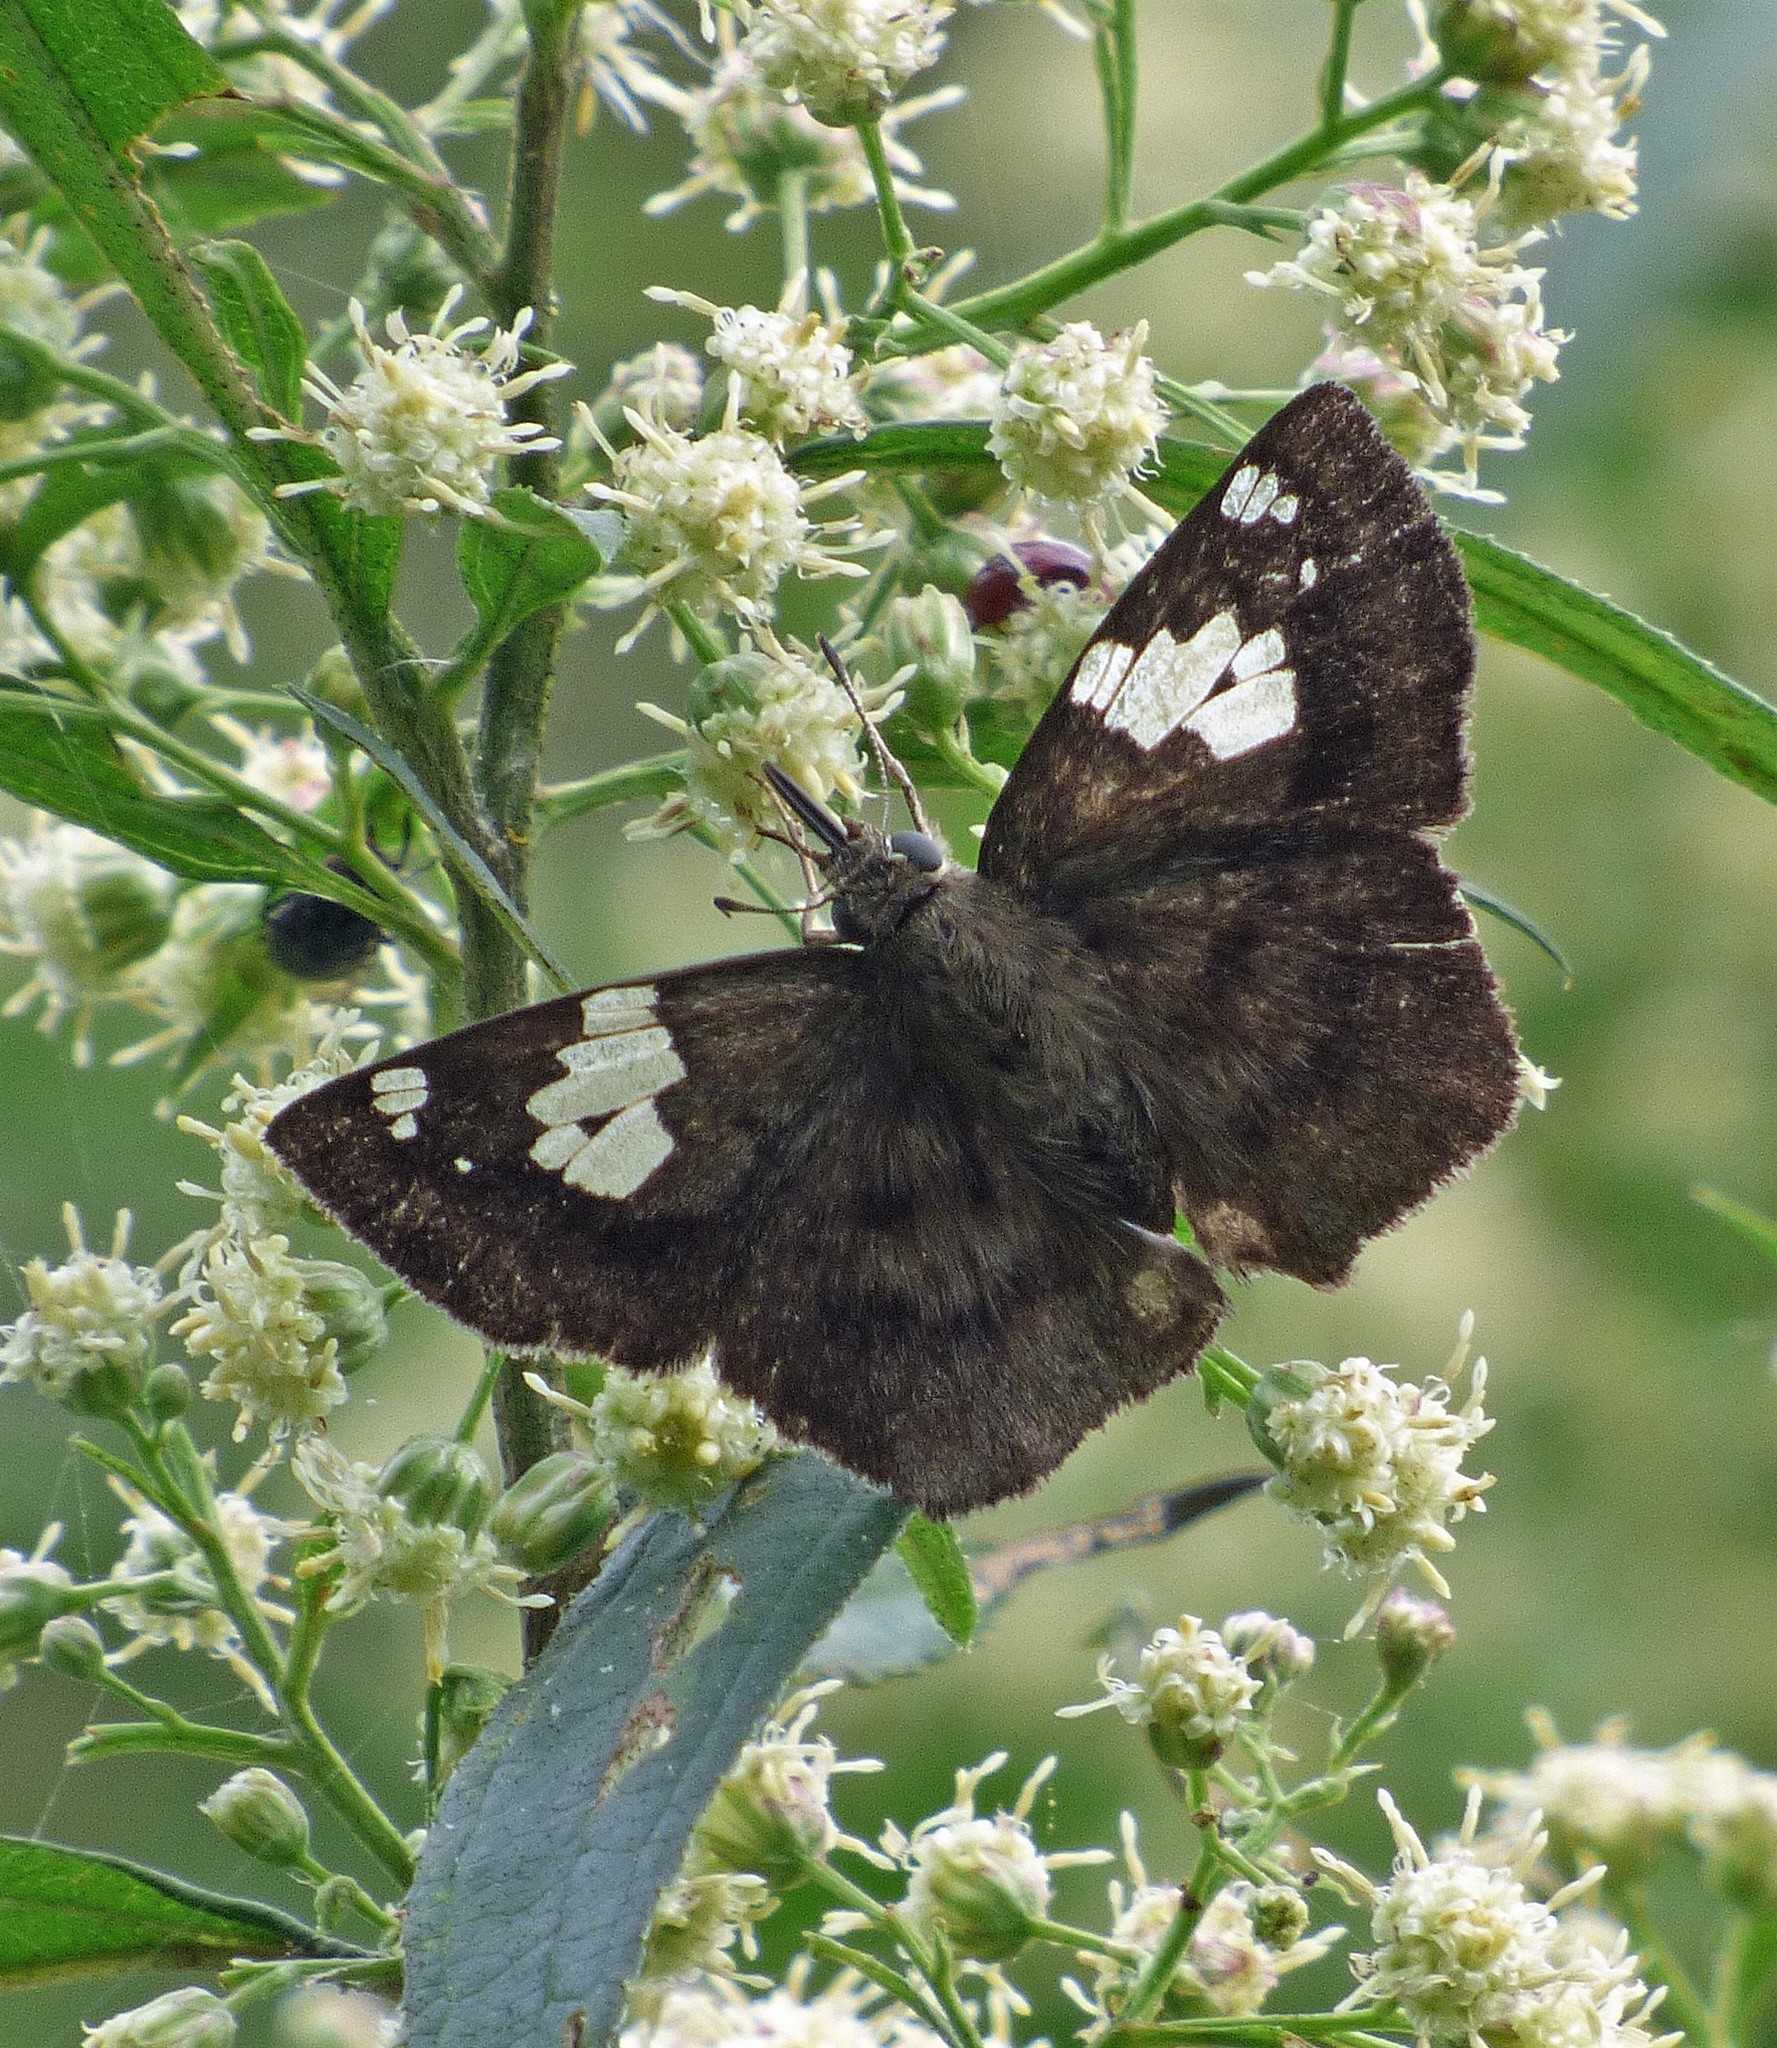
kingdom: Animalia
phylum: Arthropoda
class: Insecta
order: Lepidoptera
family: Hesperiidae
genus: Telemiades
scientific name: Telemiades amphion
